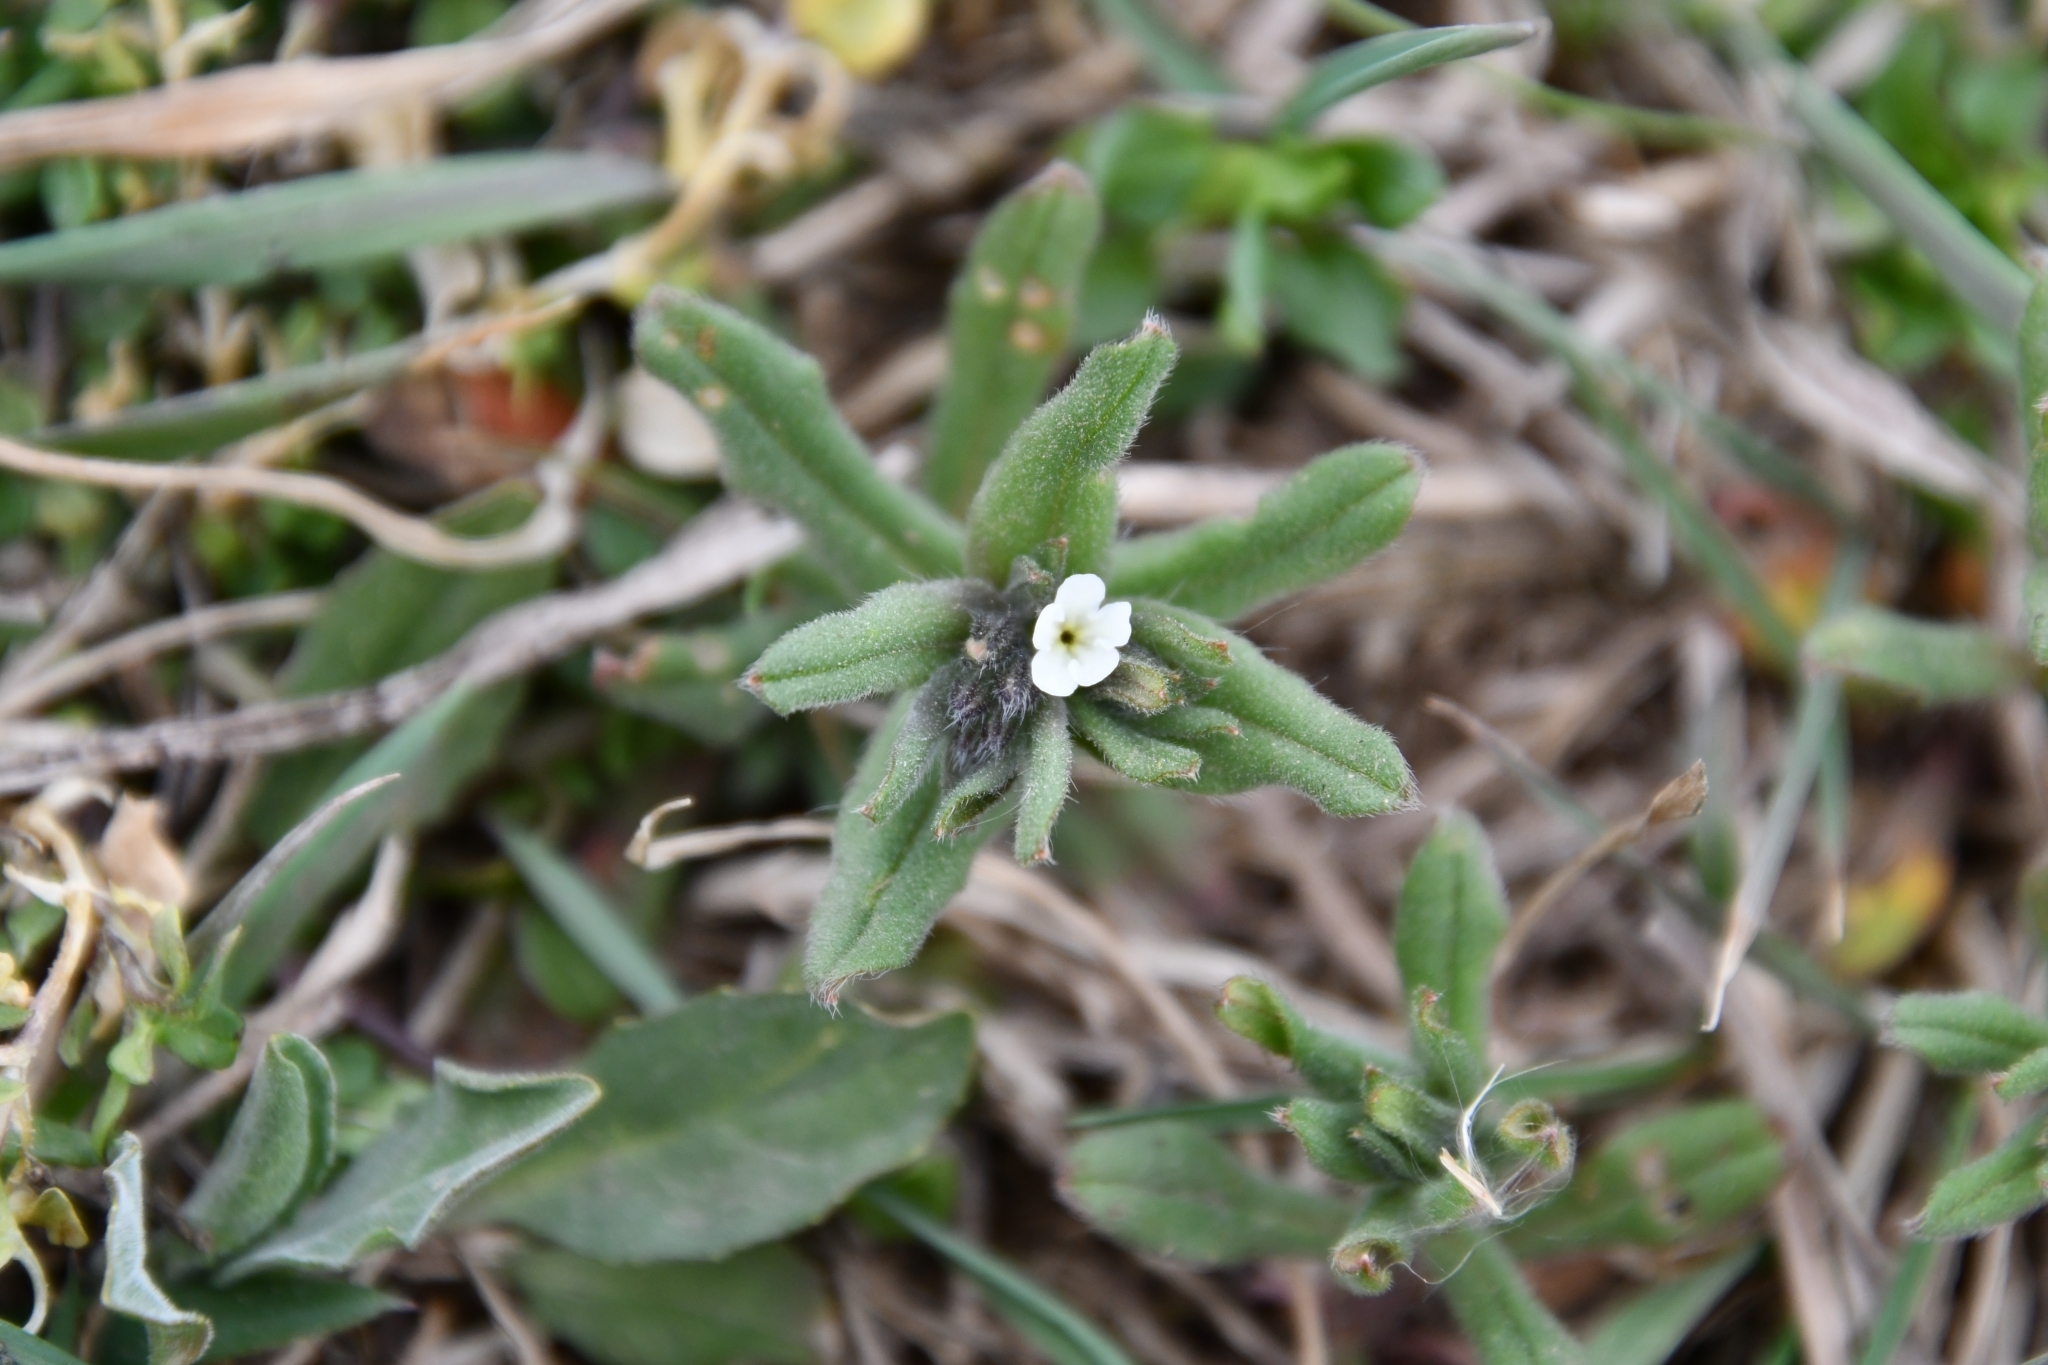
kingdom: Plantae
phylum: Tracheophyta
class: Magnoliopsida
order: Boraginales
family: Boraginaceae
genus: Buglossoides
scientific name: Buglossoides arvensis
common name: Corn gromwell
